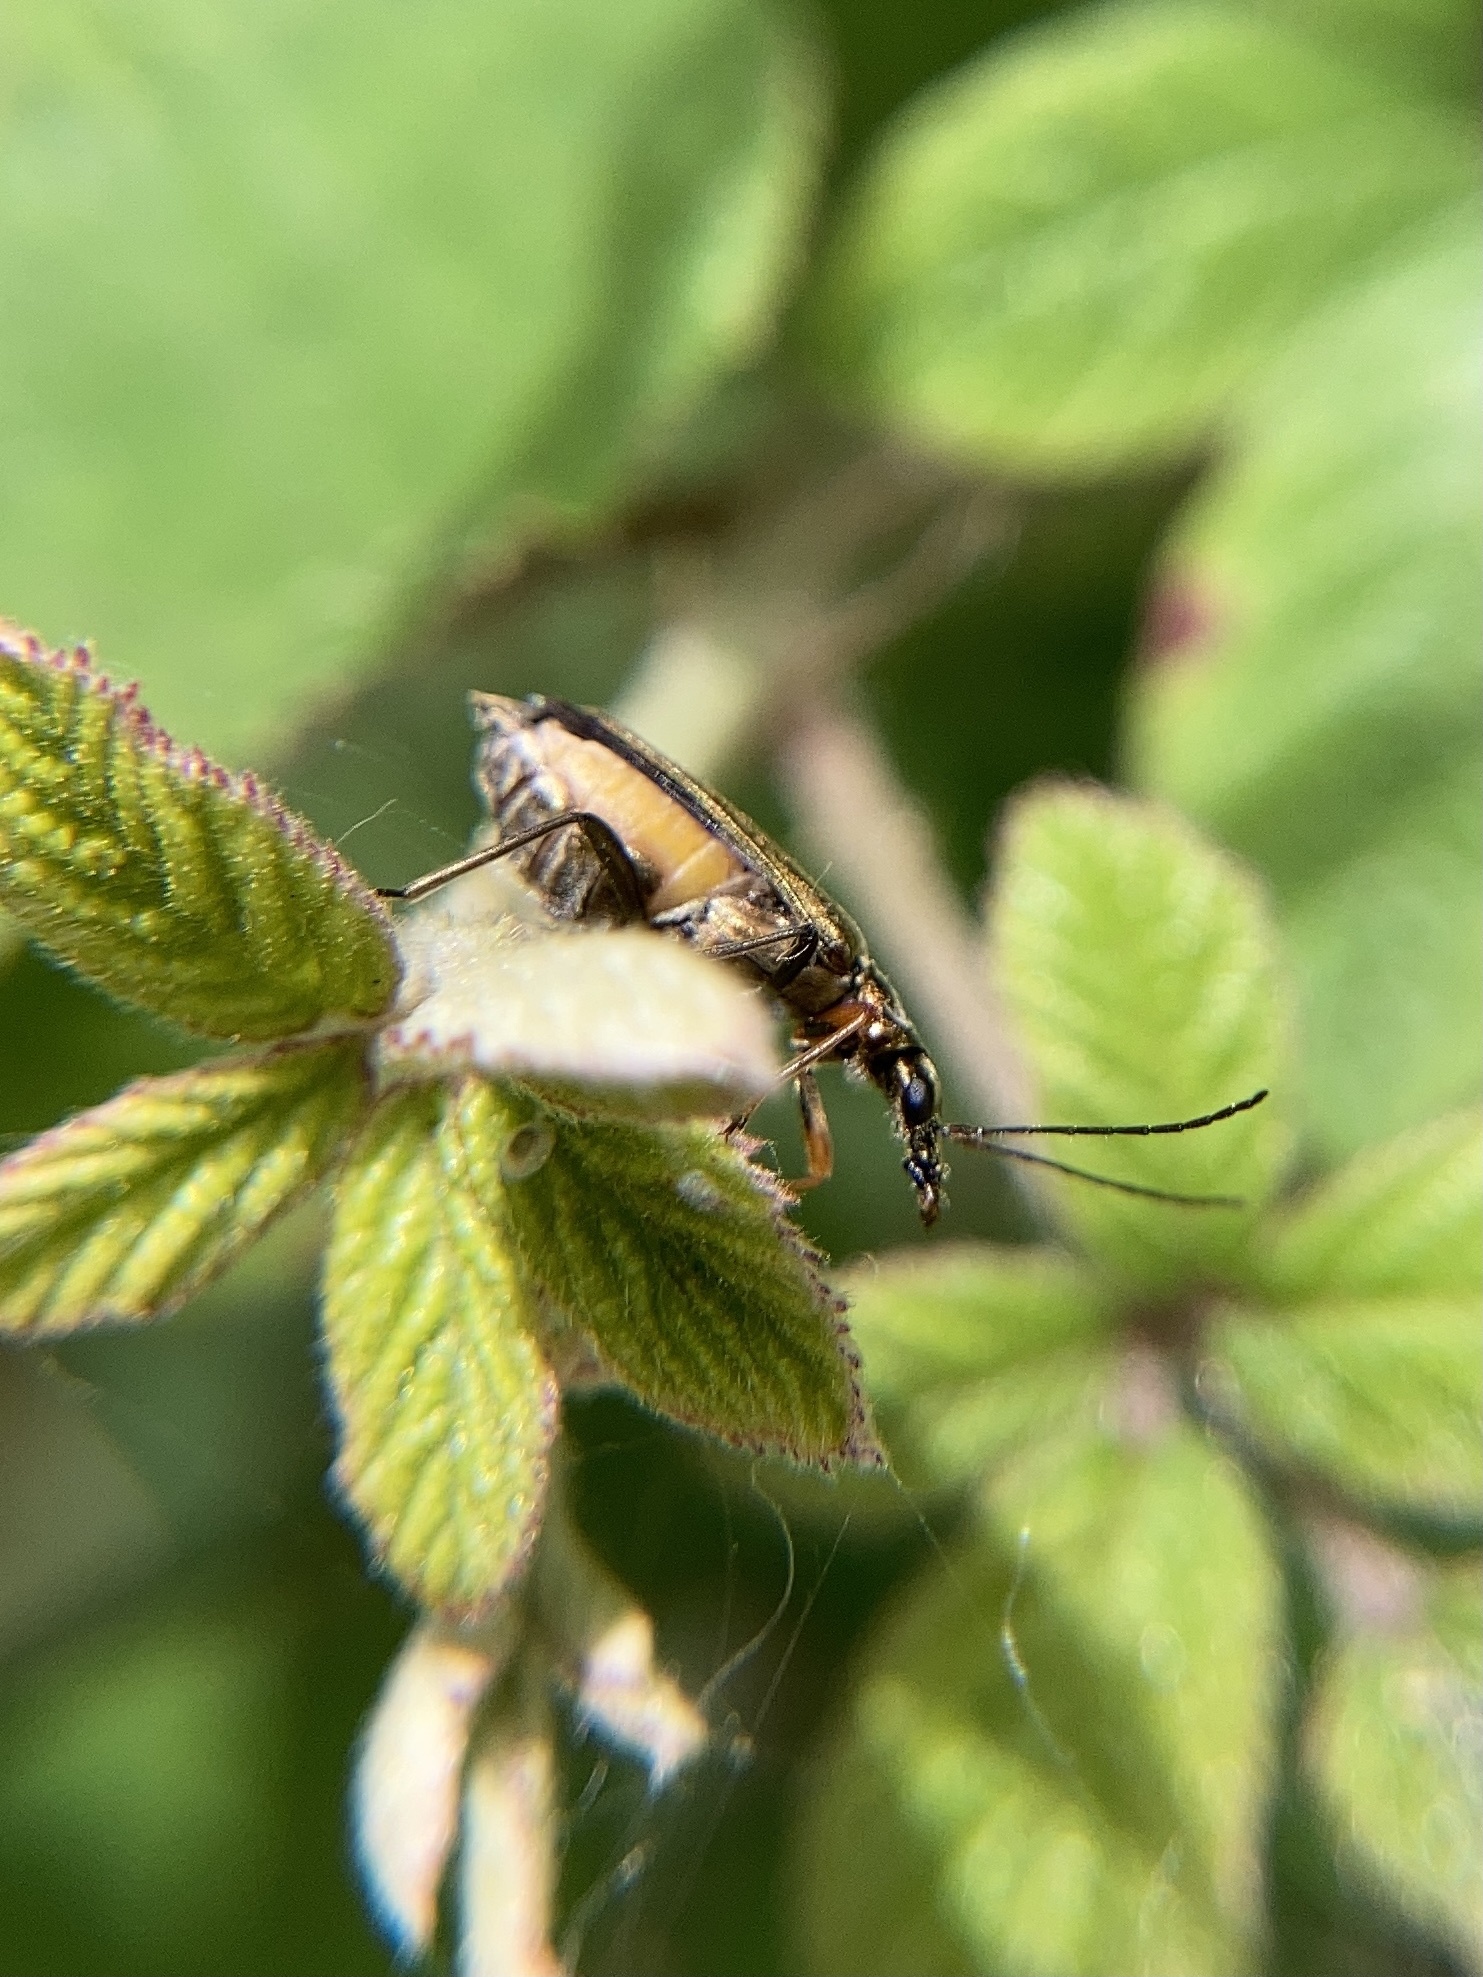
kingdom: Animalia
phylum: Arthropoda
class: Insecta
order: Coleoptera
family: Oedemeridae
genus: Oedemera
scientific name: Oedemera flavipes
